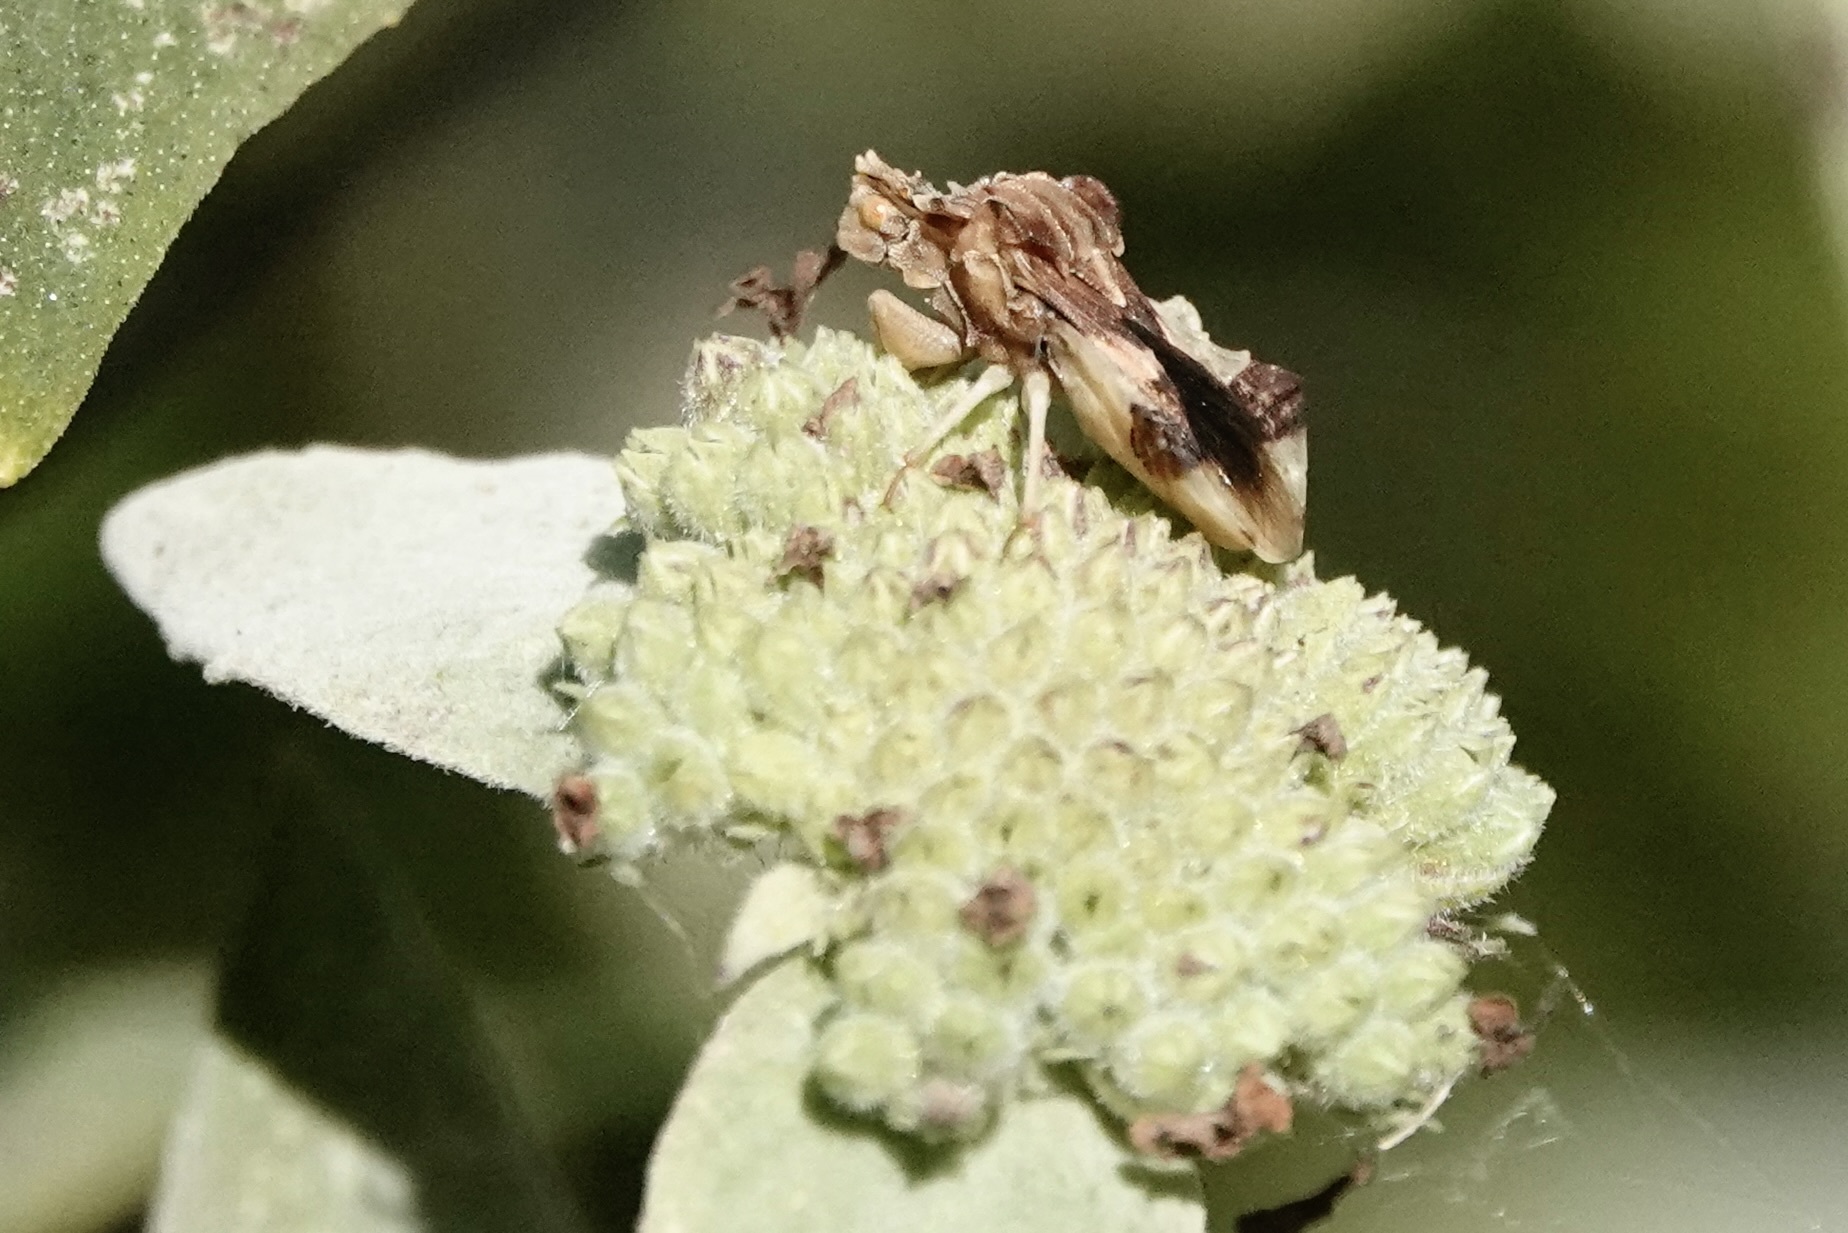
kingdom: Animalia
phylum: Arthropoda
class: Insecta
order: Hemiptera
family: Reduviidae
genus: Phymata
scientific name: Phymata fasciata
